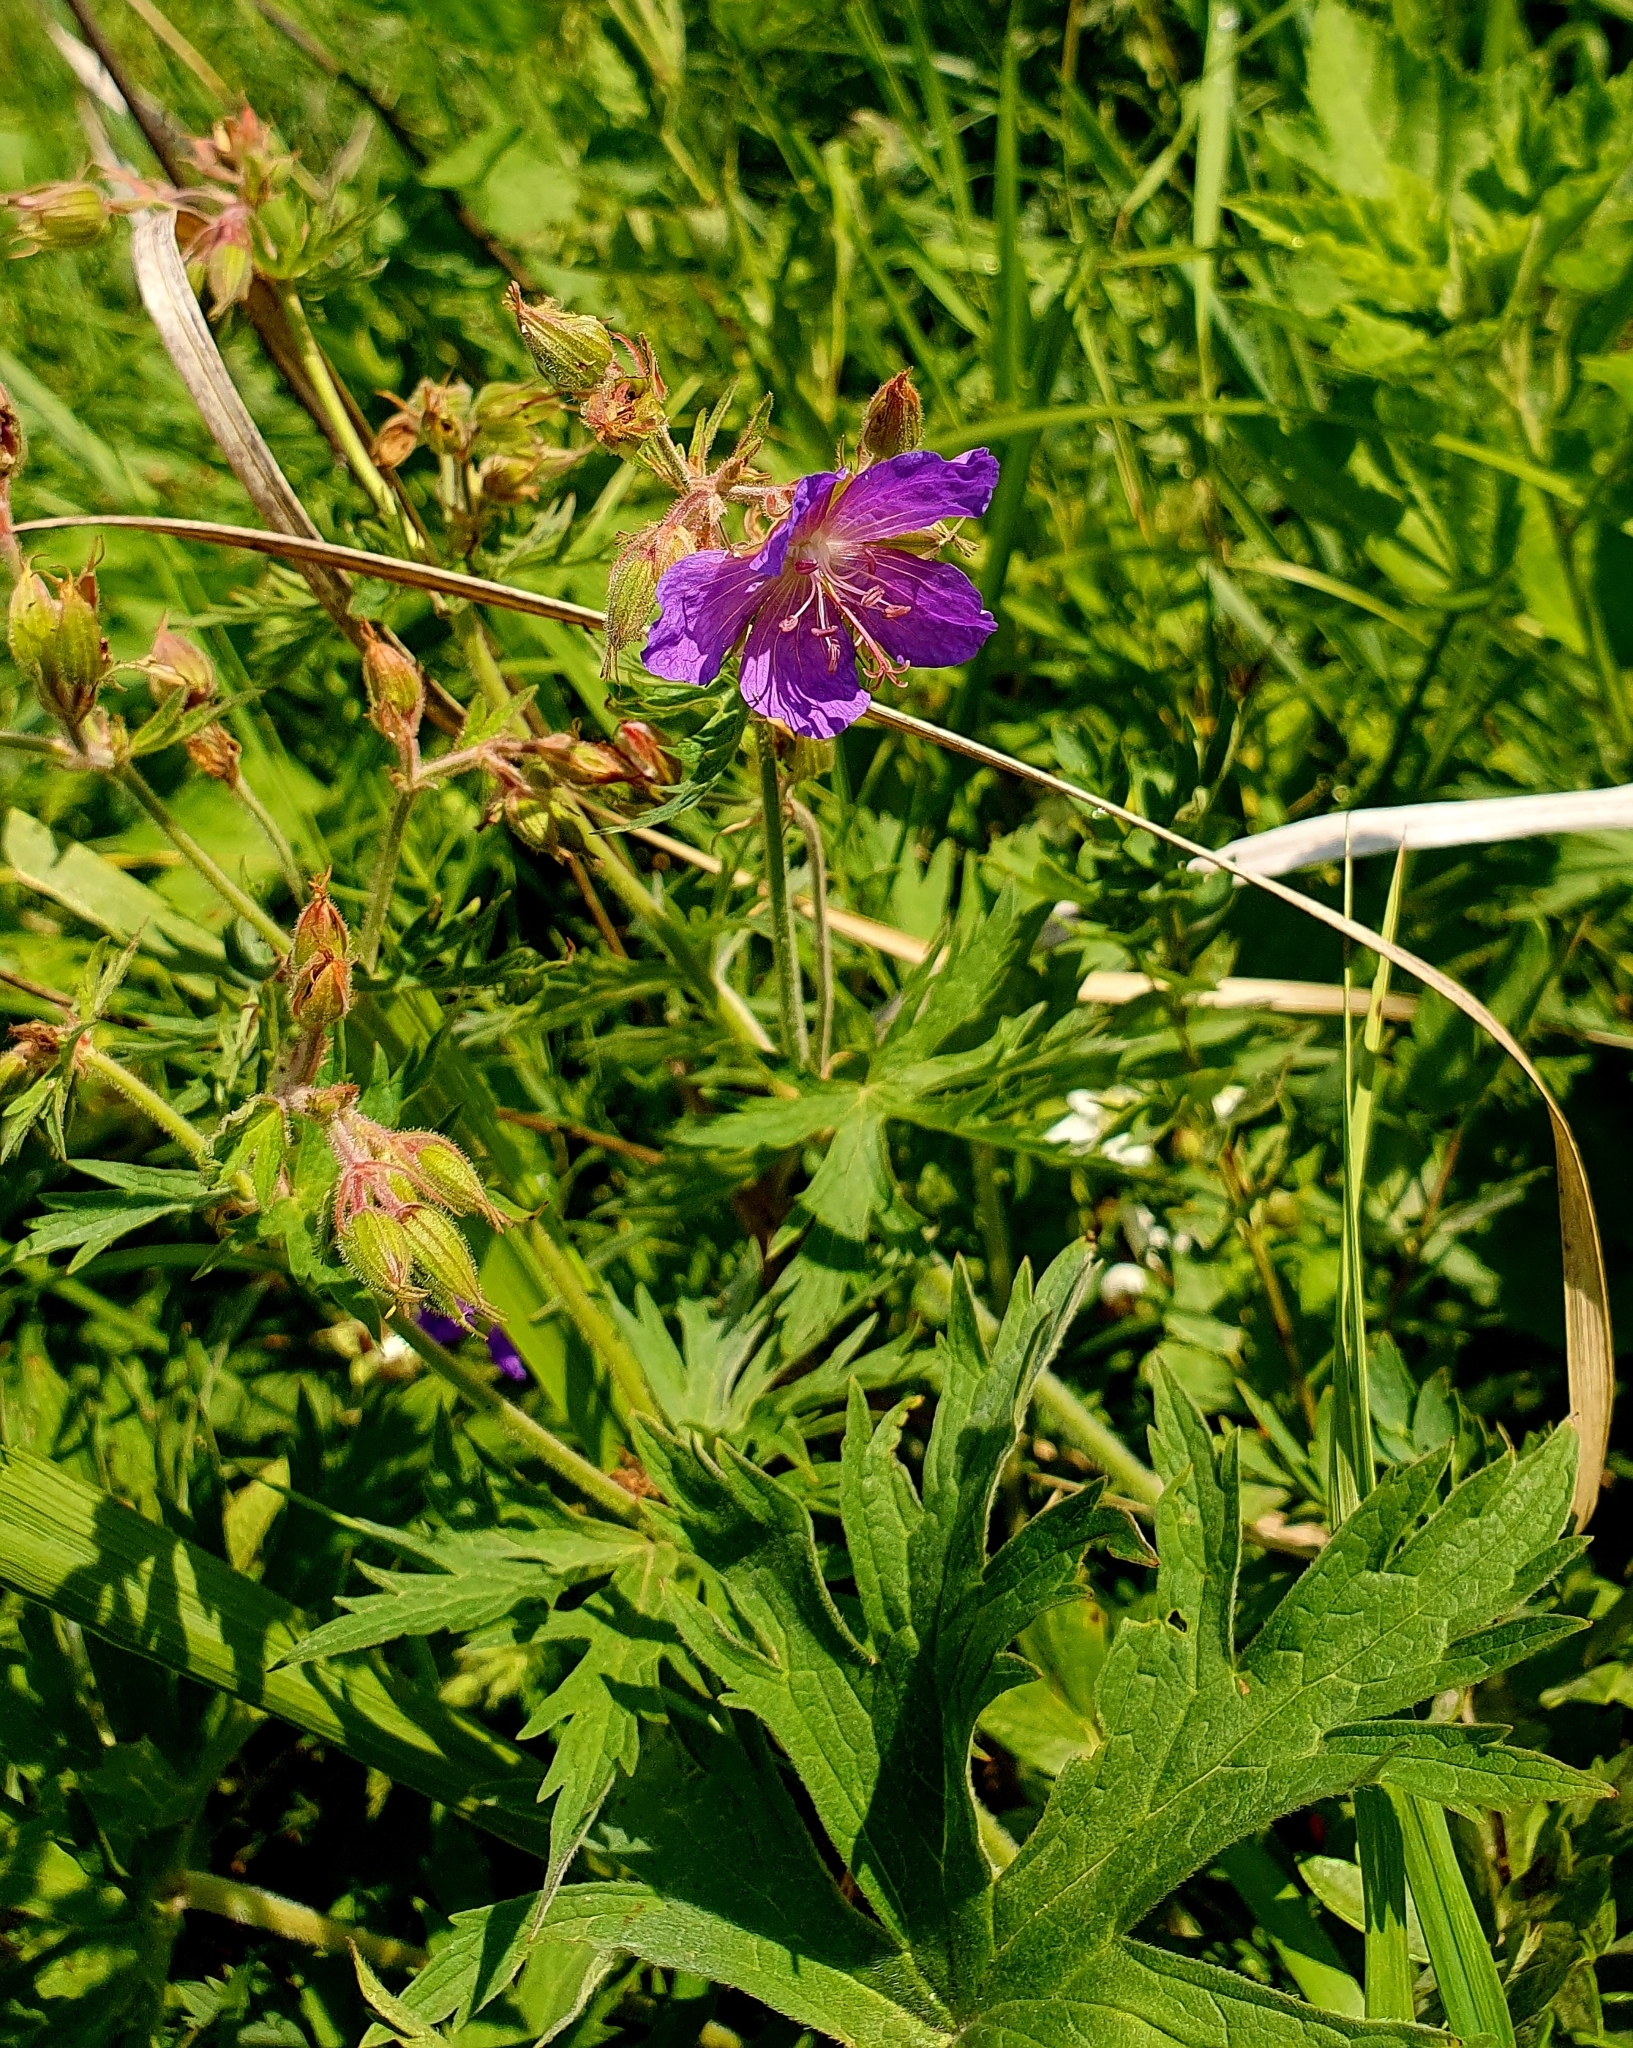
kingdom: Plantae
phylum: Tracheophyta
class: Magnoliopsida
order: Geraniales
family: Geraniaceae
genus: Geranium
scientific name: Geranium pratense
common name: Meadow crane's-bill
